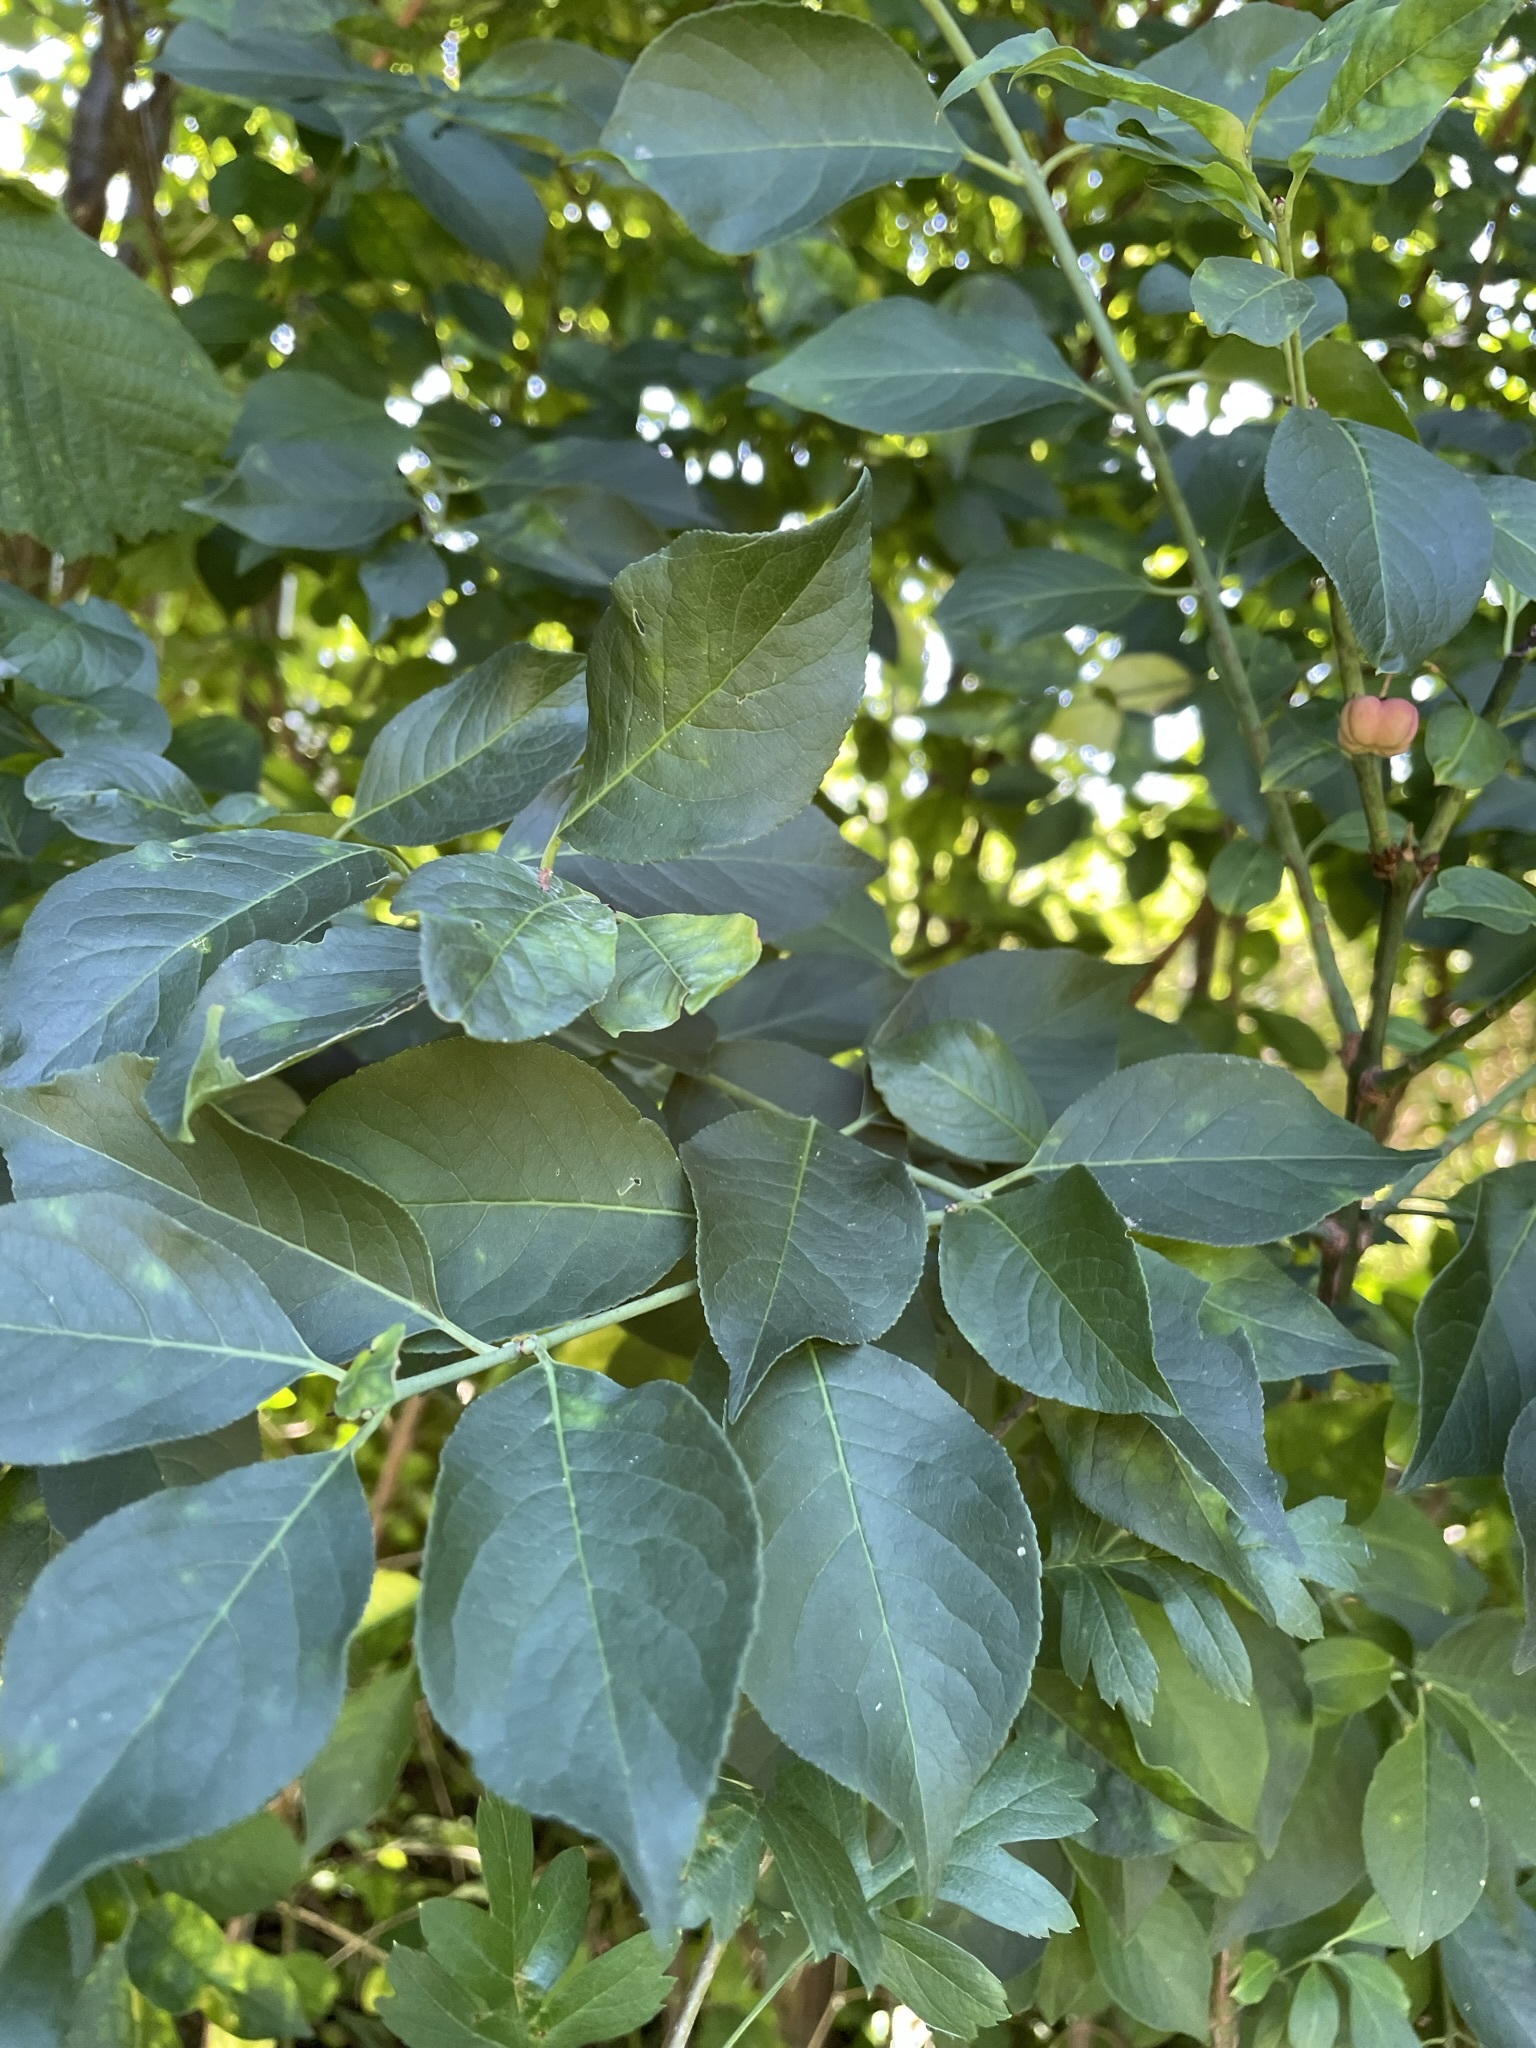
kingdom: Plantae
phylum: Tracheophyta
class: Magnoliopsida
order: Celastrales
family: Celastraceae
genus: Euonymus
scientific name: Euonymus europaeus
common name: Spindle
